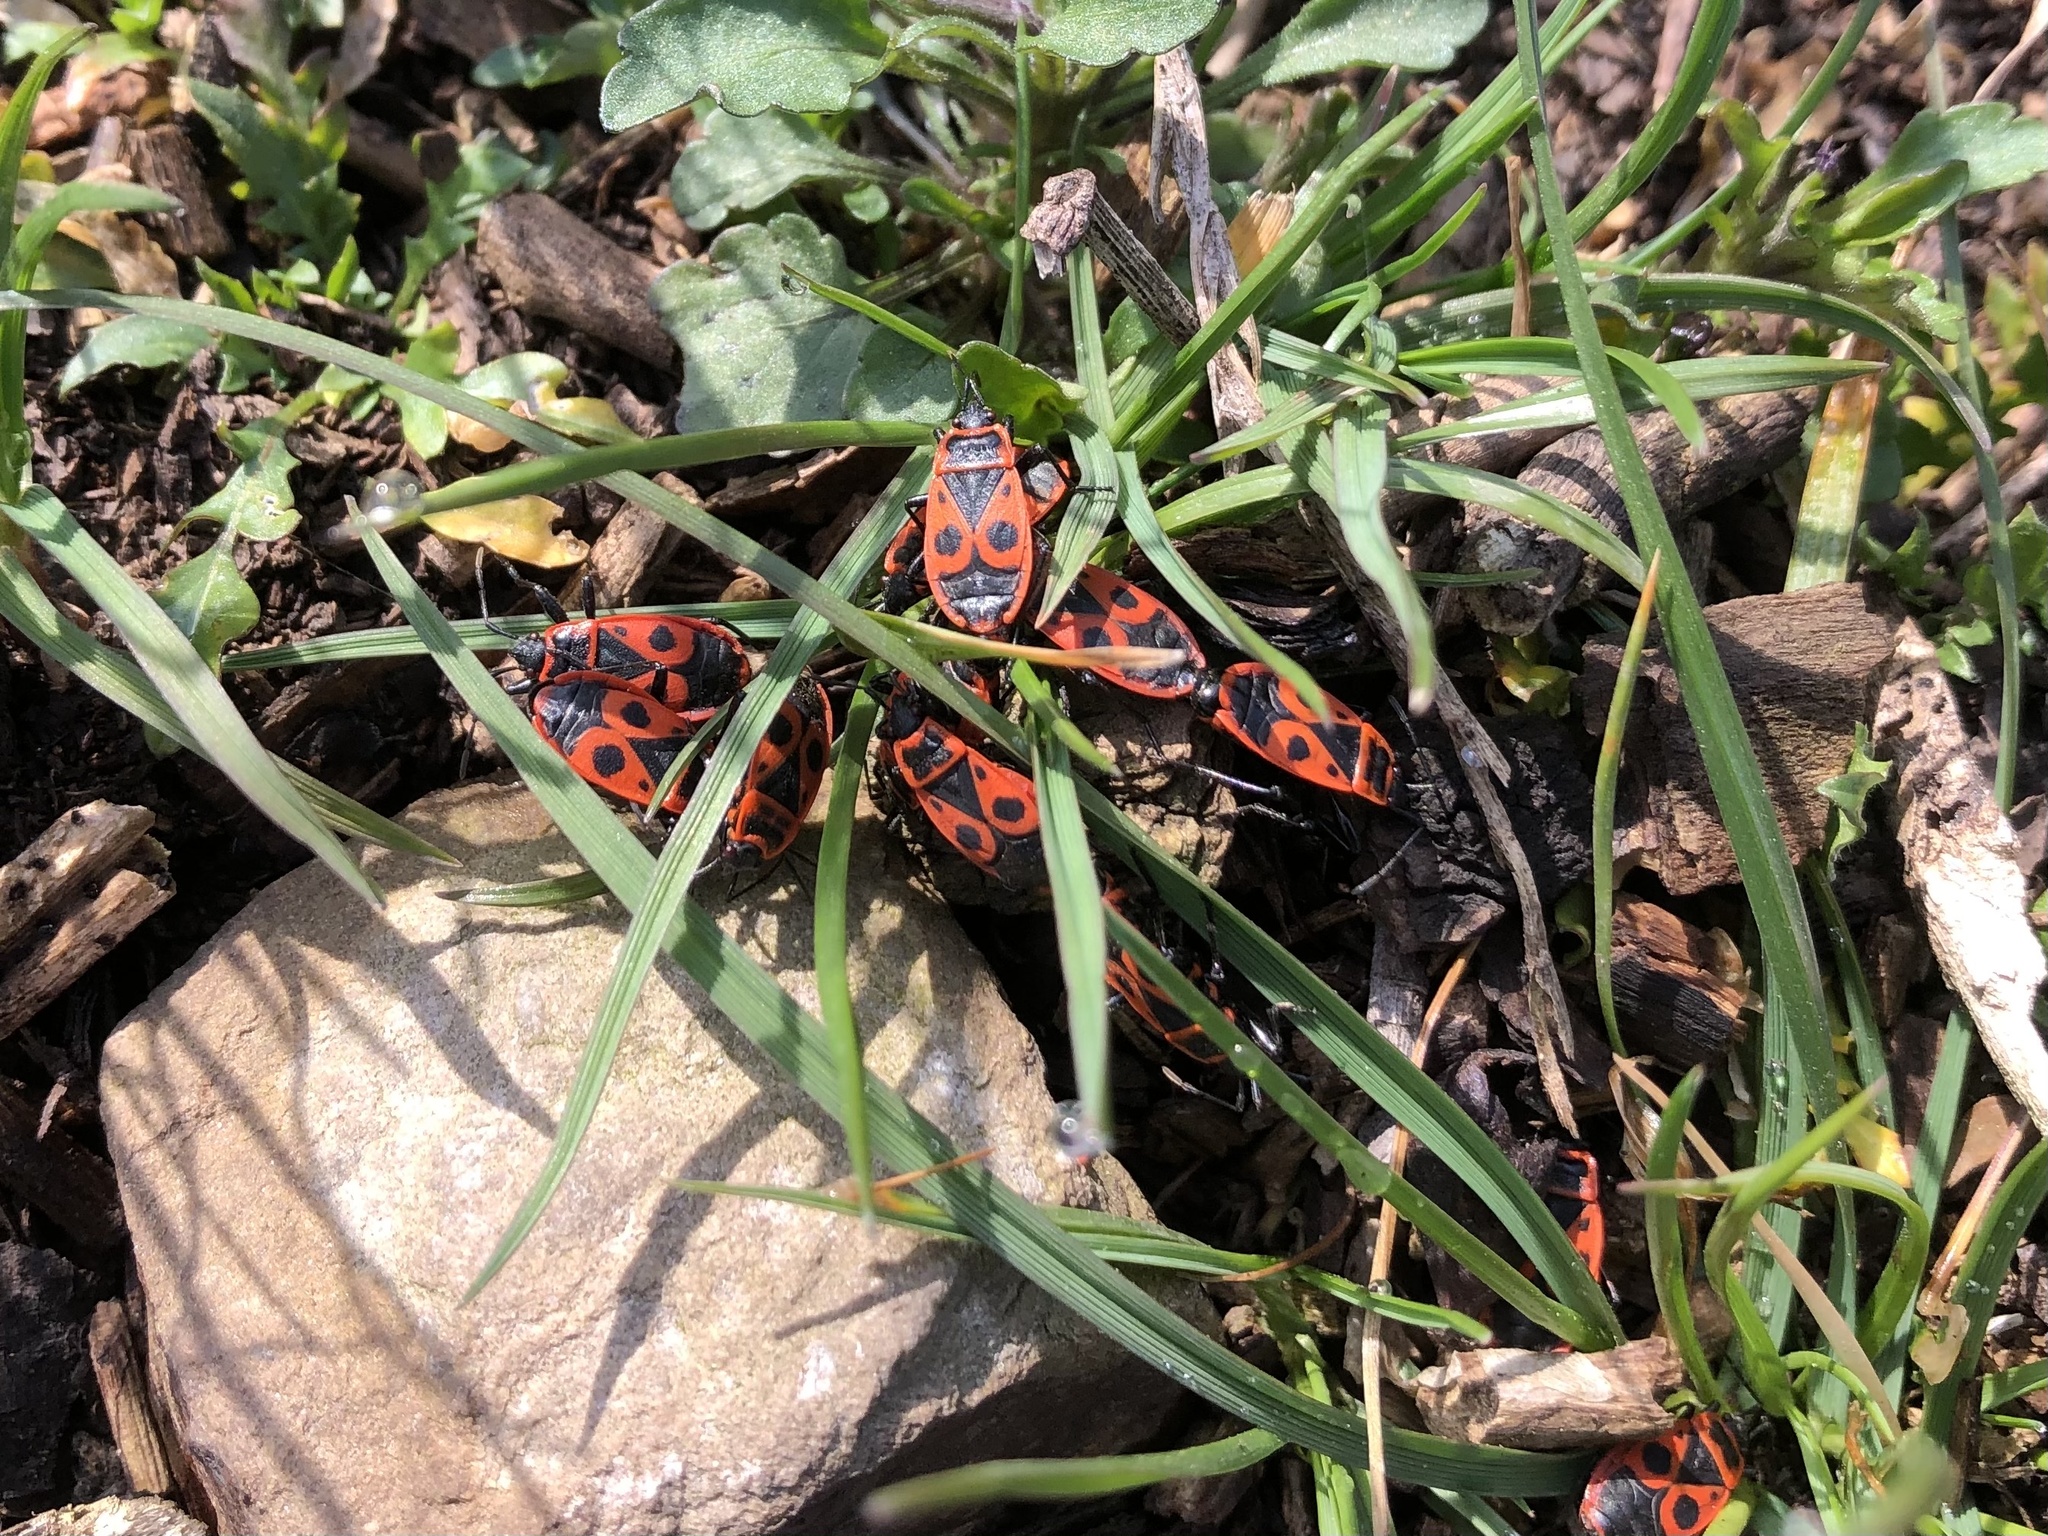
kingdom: Animalia
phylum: Arthropoda
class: Insecta
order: Hemiptera
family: Pyrrhocoridae
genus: Pyrrhocoris
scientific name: Pyrrhocoris apterus
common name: Firebug
